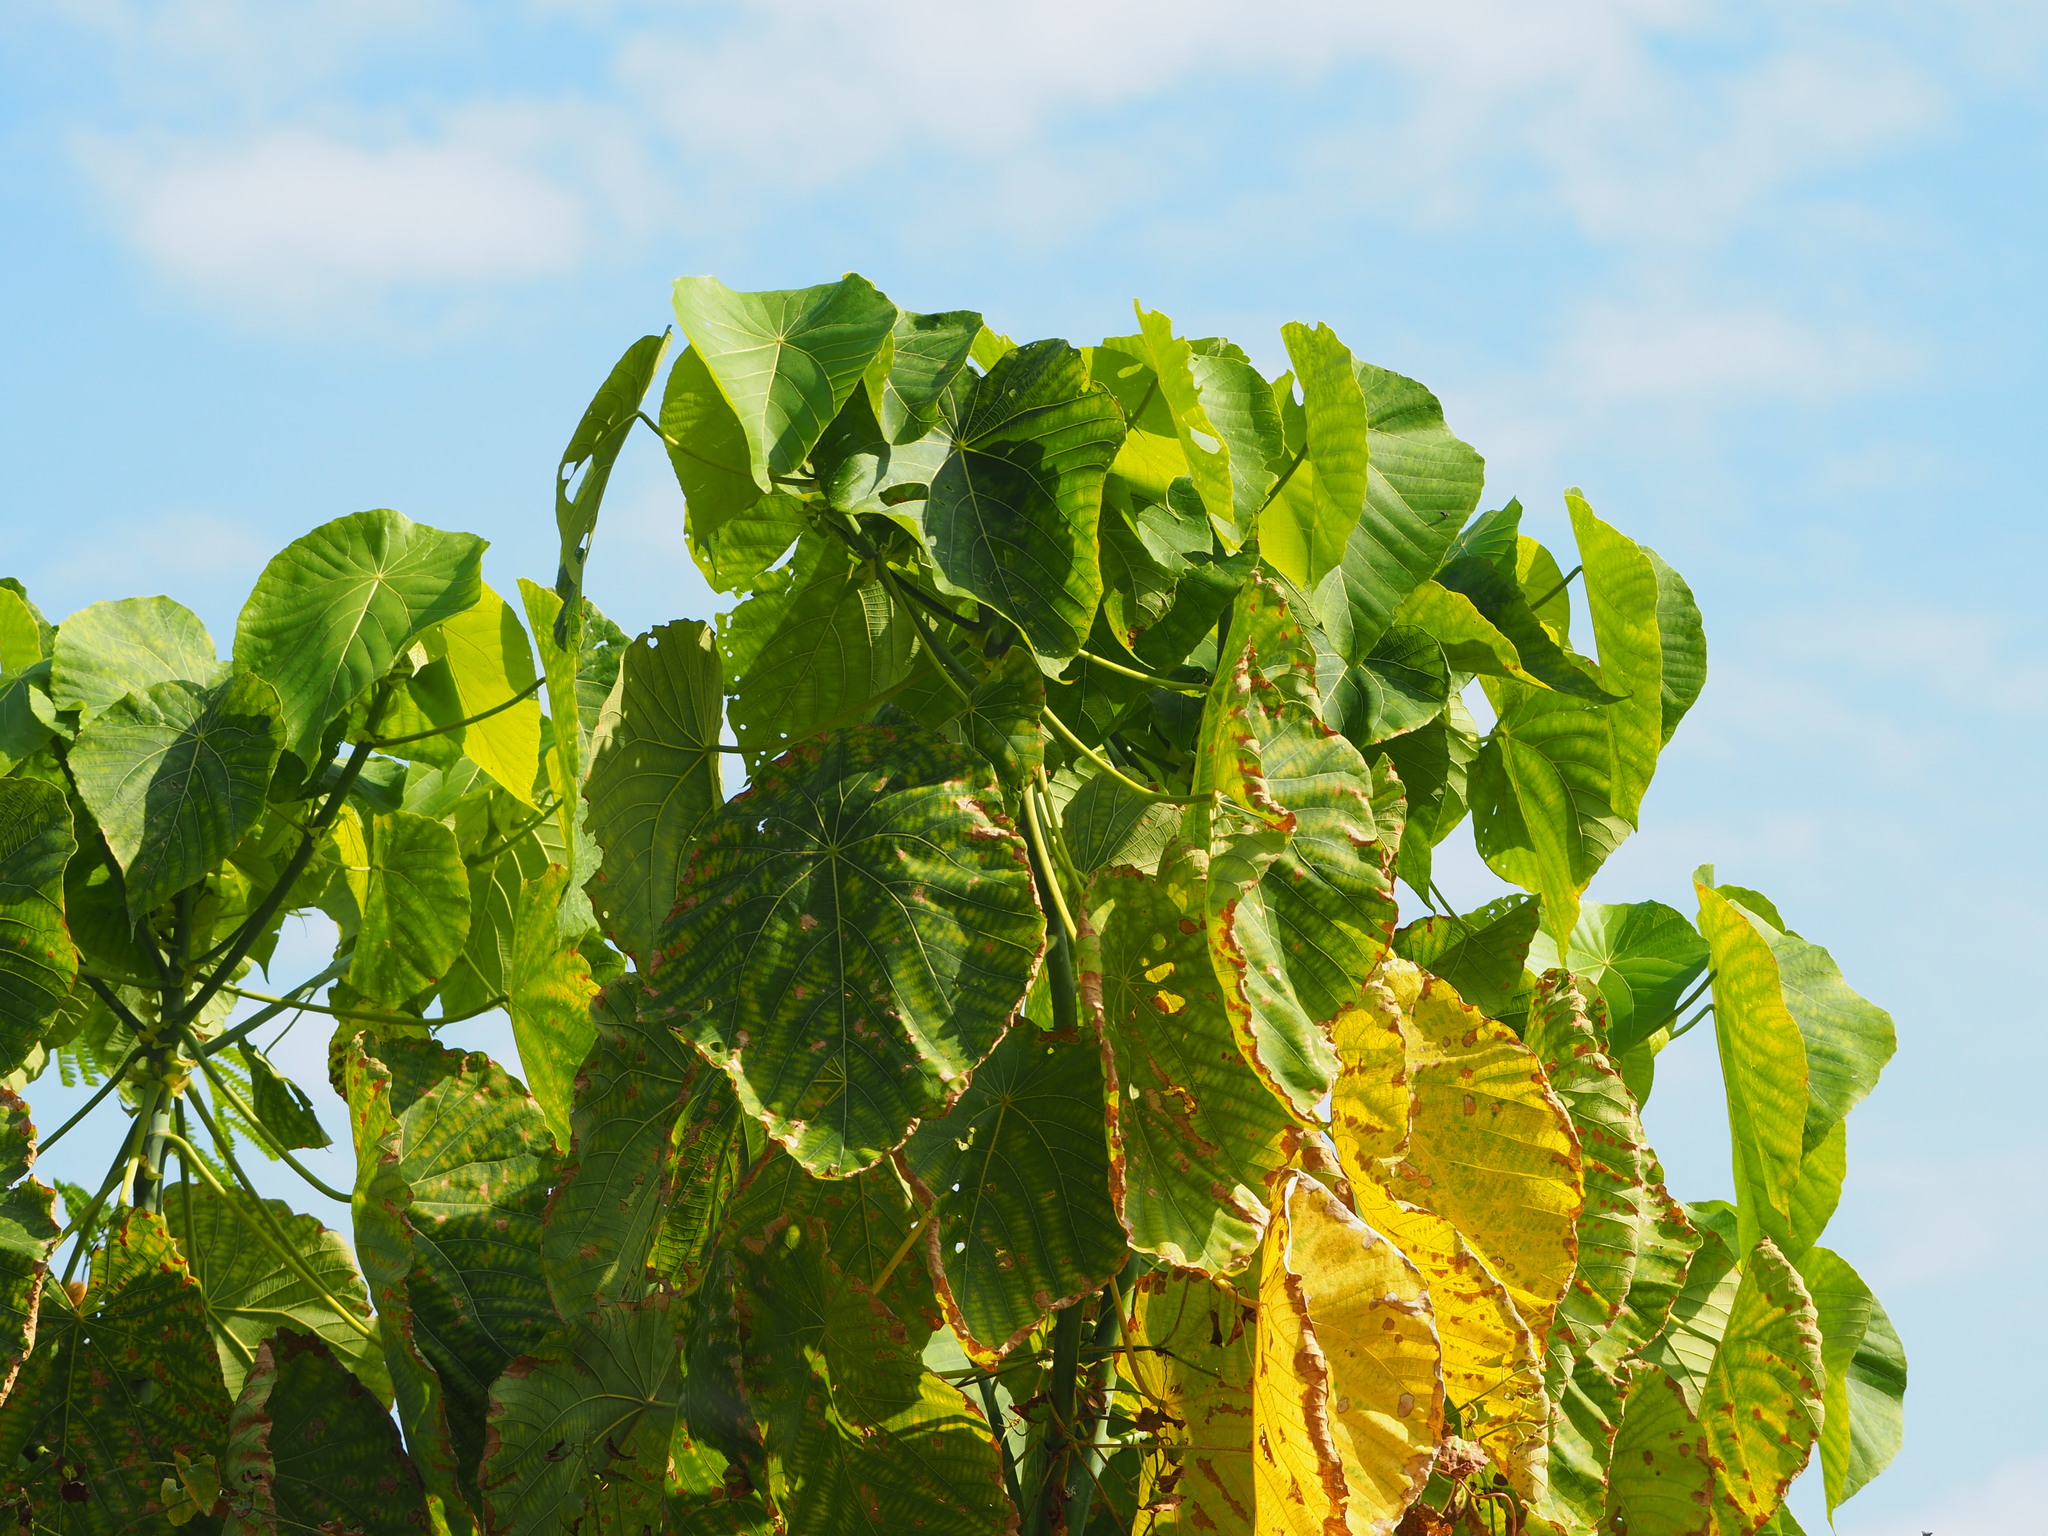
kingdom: Plantae
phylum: Tracheophyta
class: Magnoliopsida
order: Malpighiales
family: Euphorbiaceae
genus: Macaranga
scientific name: Macaranga tanarius
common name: Parasol leaf tree
